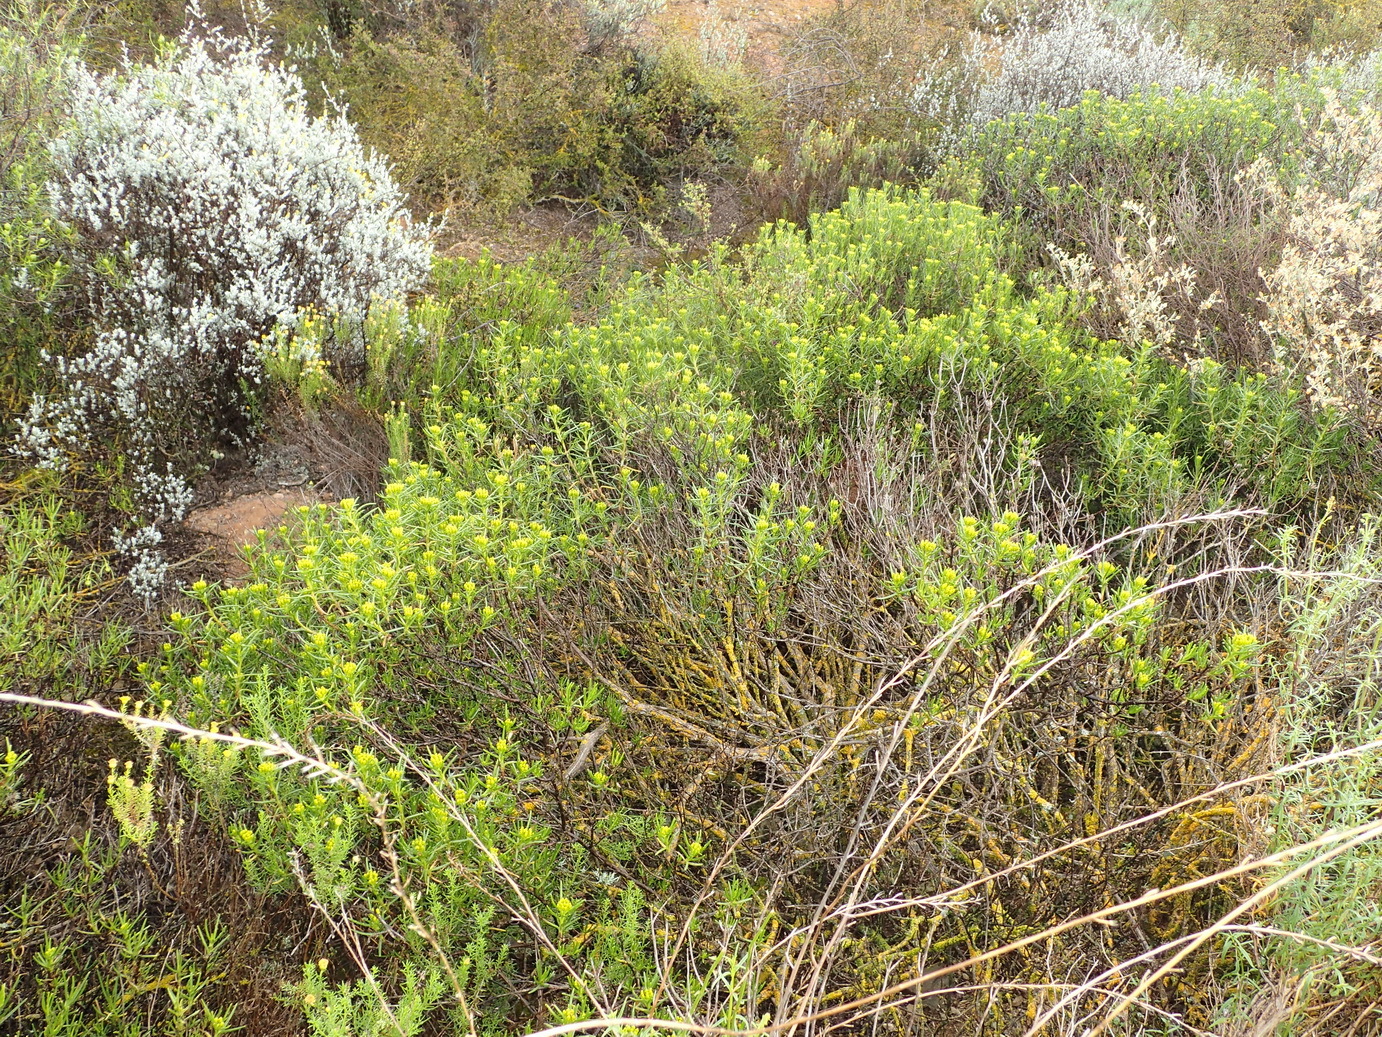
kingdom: Plantae
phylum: Tracheophyta
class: Magnoliopsida
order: Asterales
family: Asteraceae
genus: Pteronia
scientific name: Pteronia paniculata
